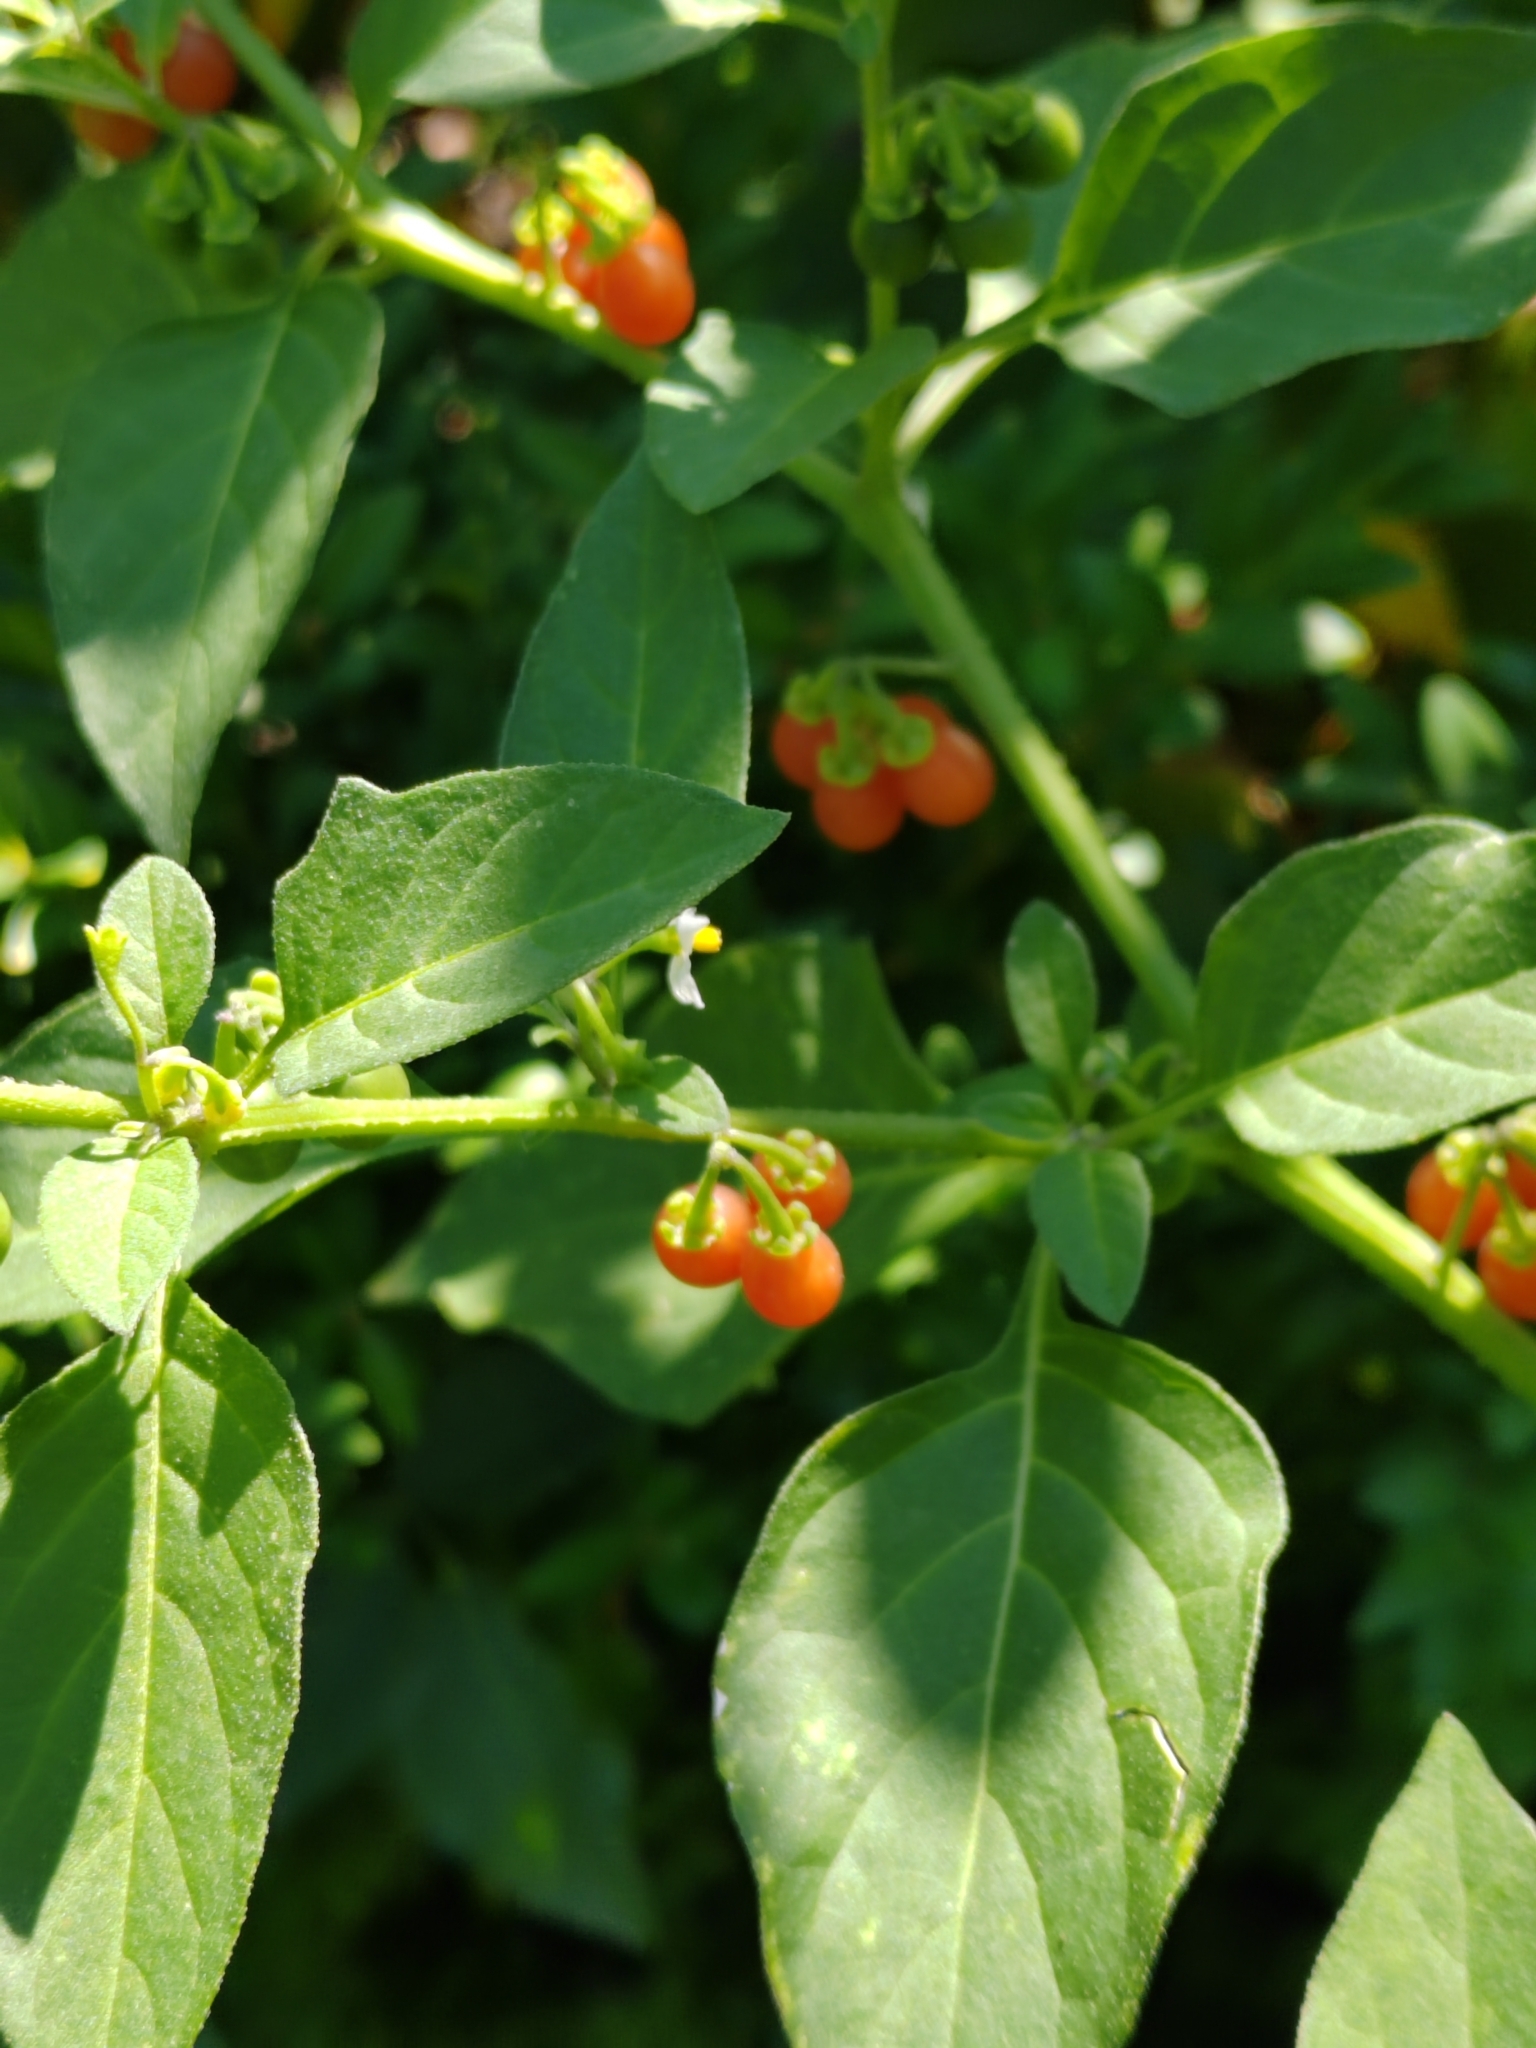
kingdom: Plantae
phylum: Tracheophyta
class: Magnoliopsida
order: Solanales
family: Solanaceae
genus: Solanum
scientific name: Solanum villosum
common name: Red nightshade
